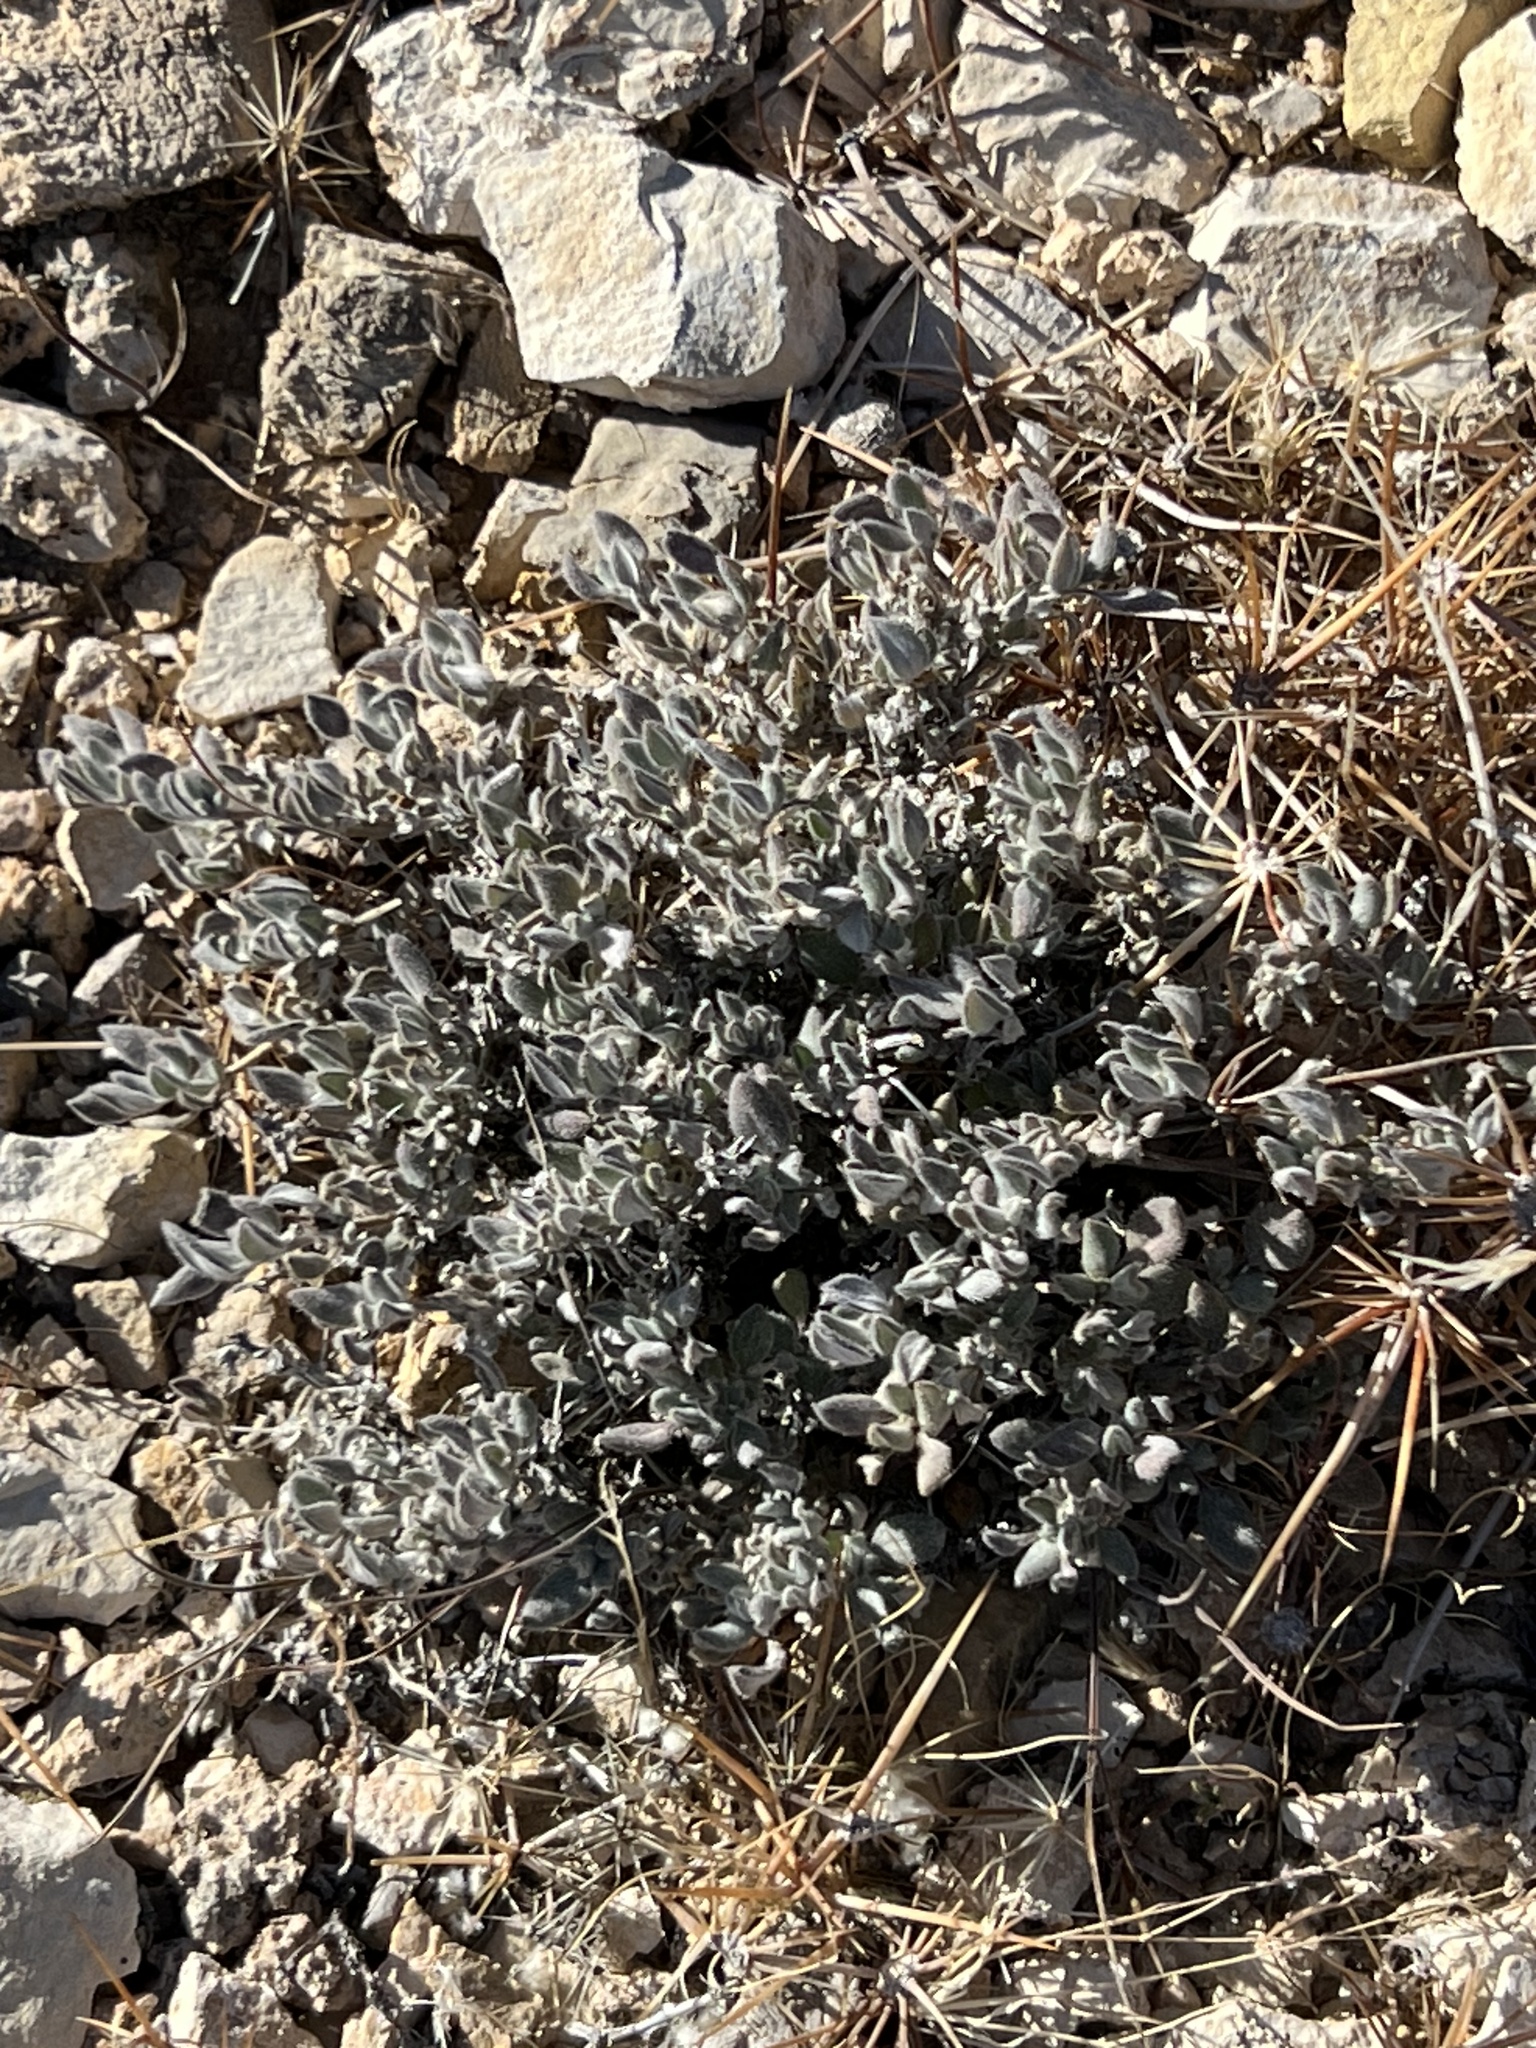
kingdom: Plantae
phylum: Tracheophyta
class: Magnoliopsida
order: Boraginales
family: Ehretiaceae
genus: Tiquilia
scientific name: Tiquilia canescens
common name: Hairy tiquilia
